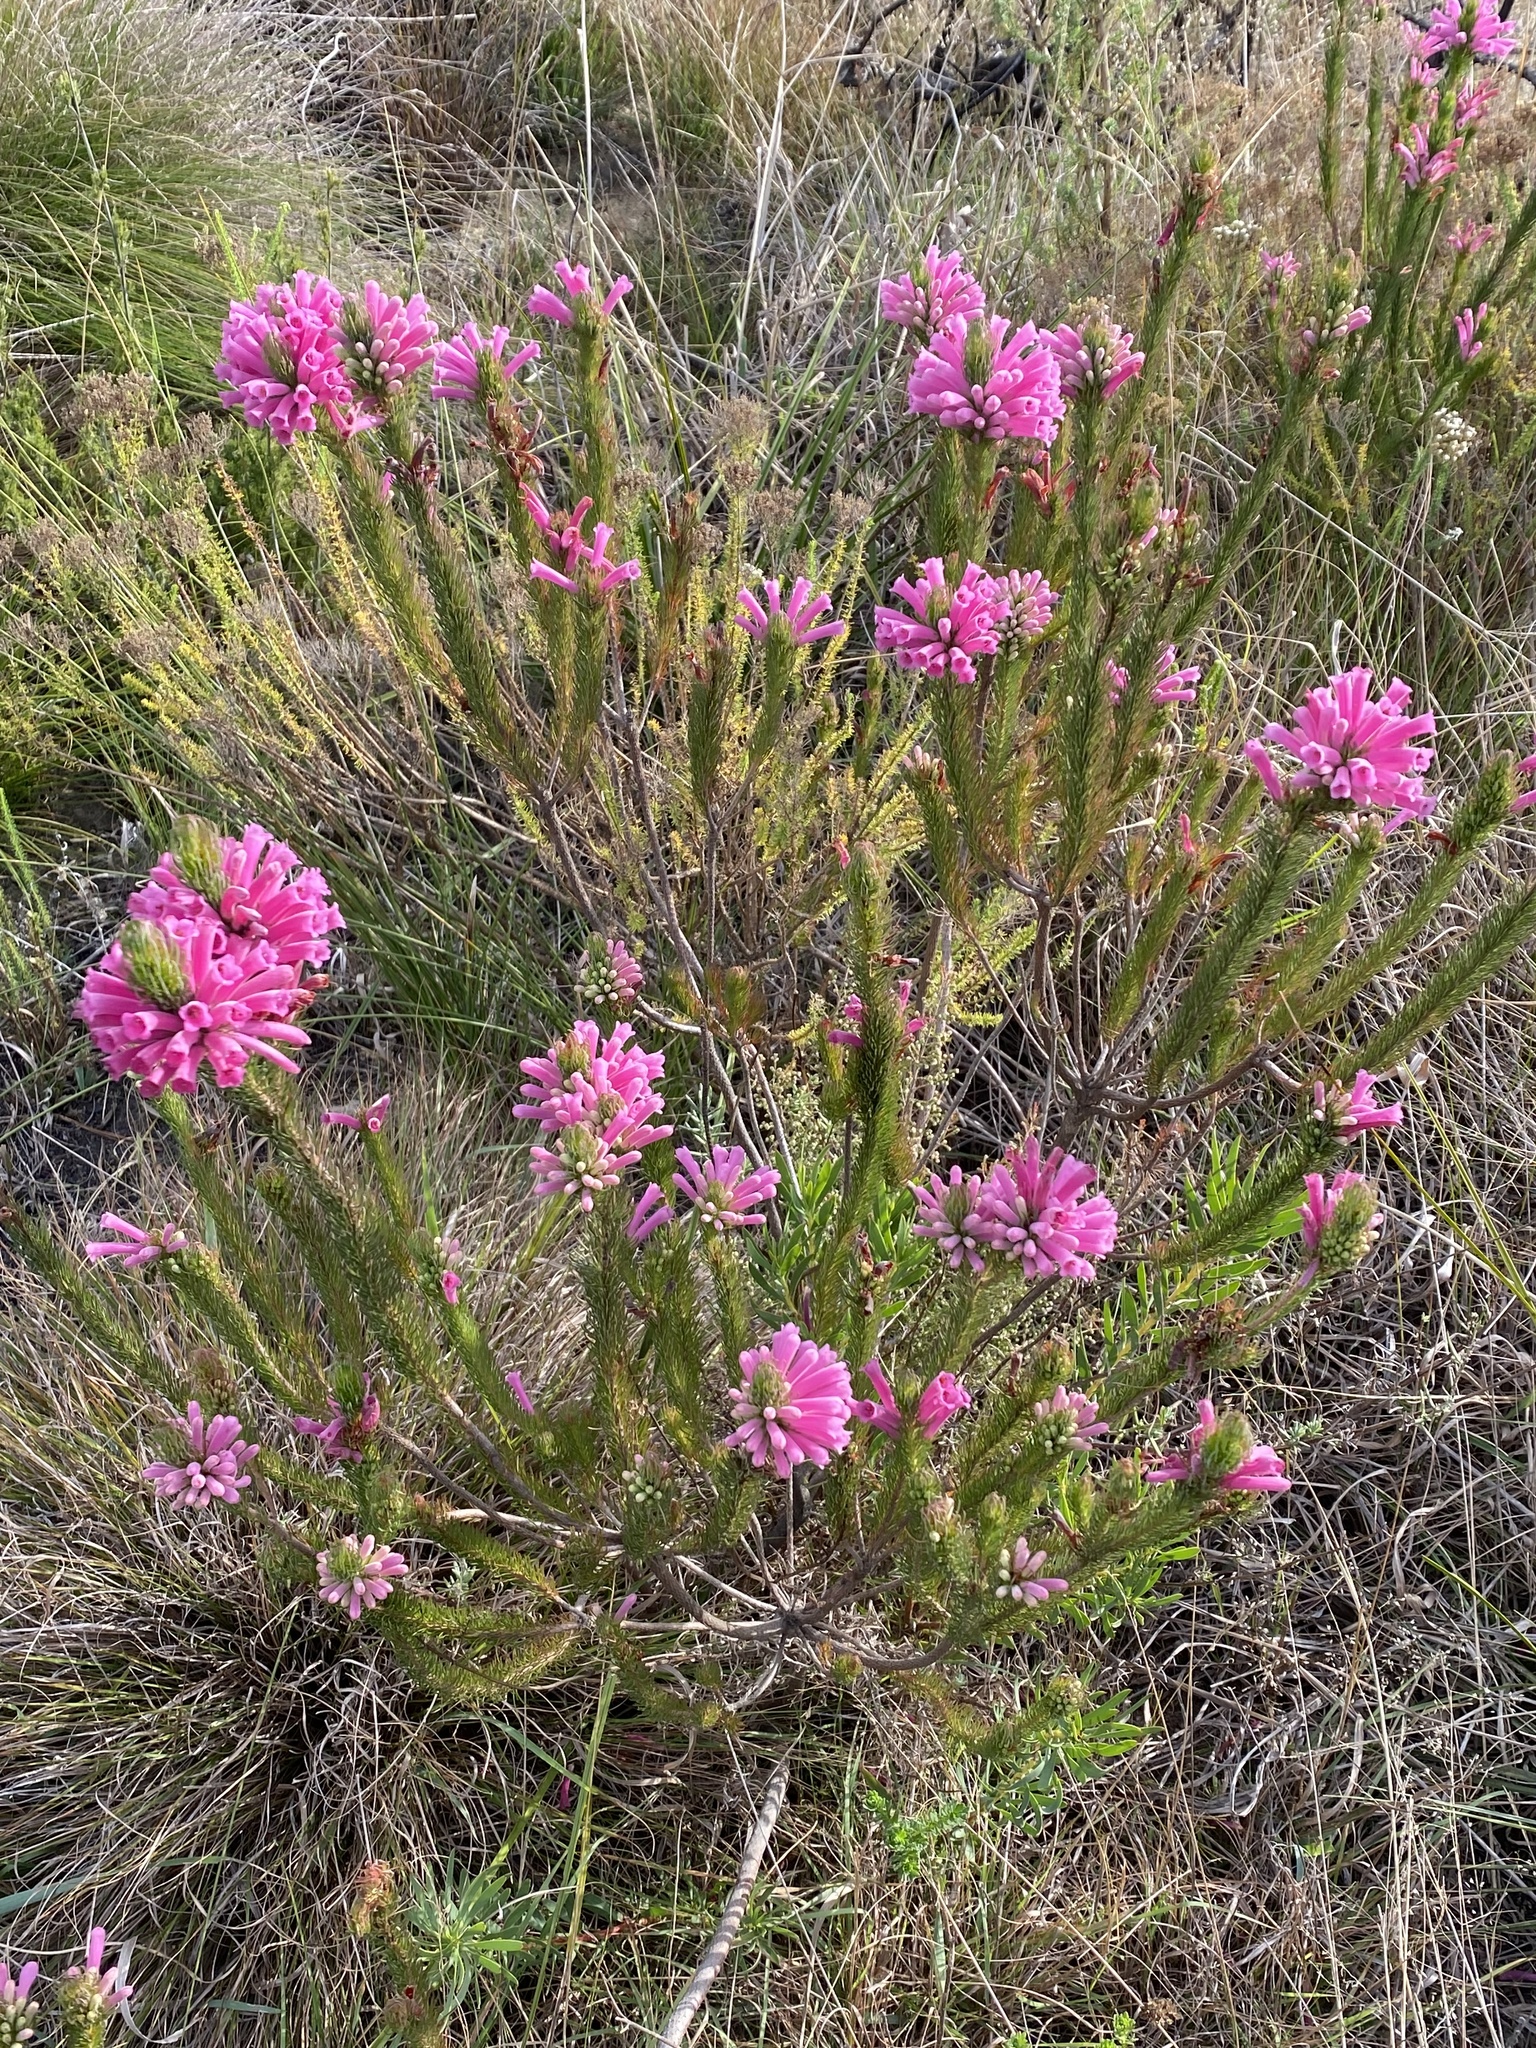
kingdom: Plantae
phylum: Tracheophyta
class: Magnoliopsida
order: Ericales
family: Ericaceae
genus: Erica
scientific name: Erica vestita
